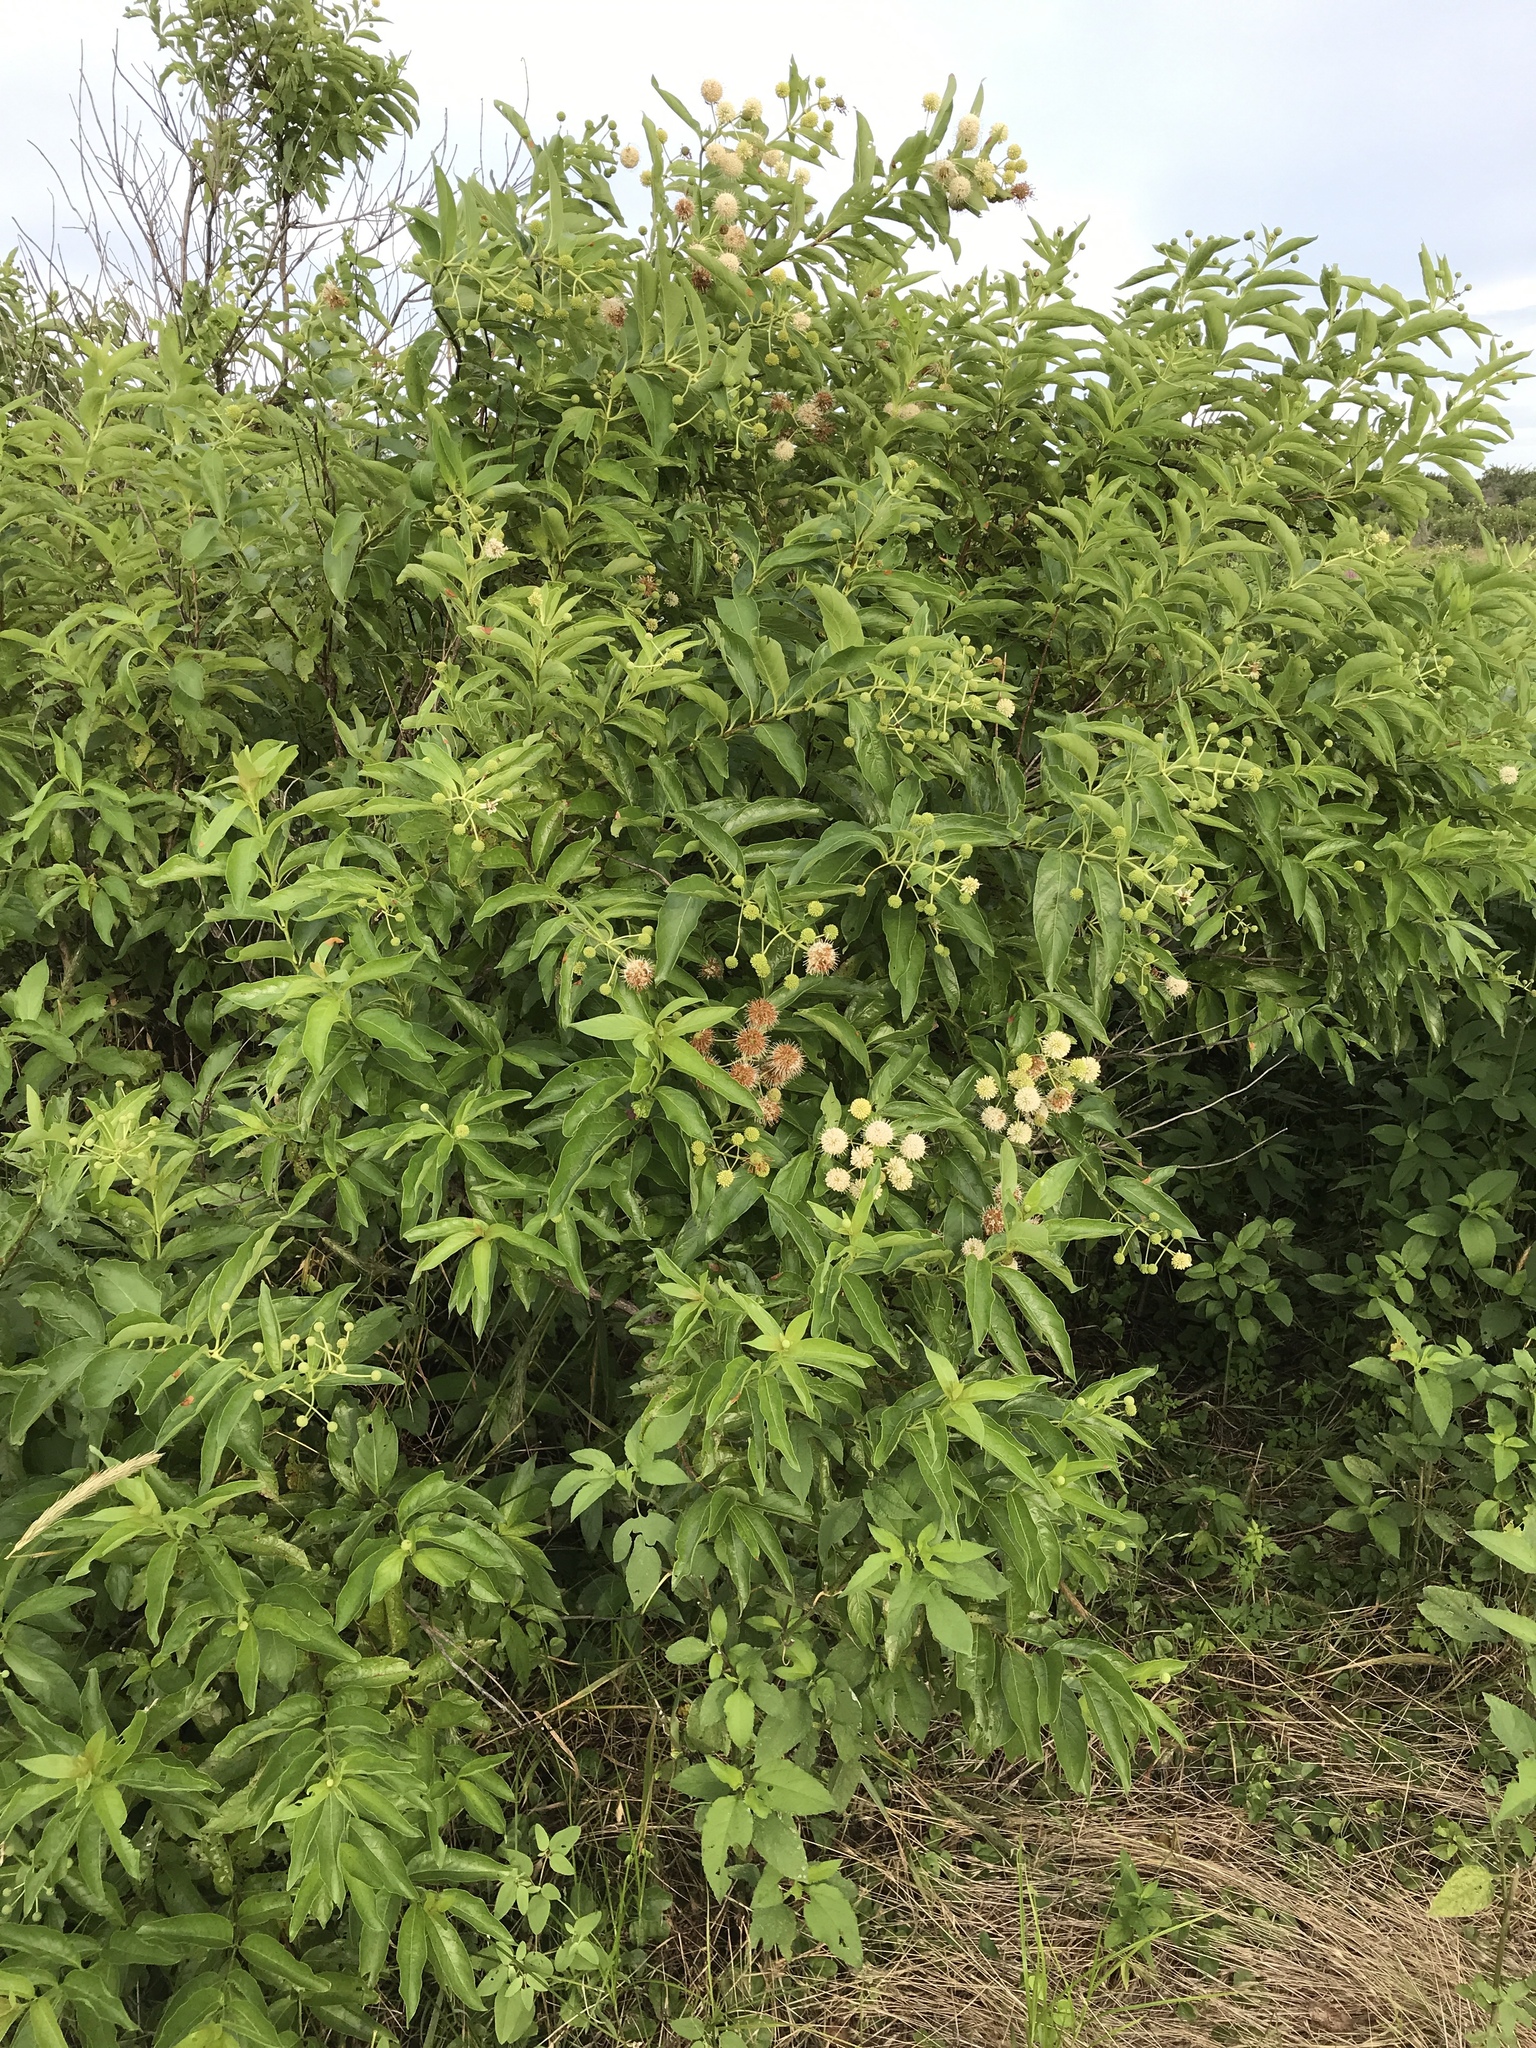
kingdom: Plantae
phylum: Tracheophyta
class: Magnoliopsida
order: Gentianales
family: Rubiaceae
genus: Cephalanthus
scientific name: Cephalanthus occidentalis
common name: Button-willow
